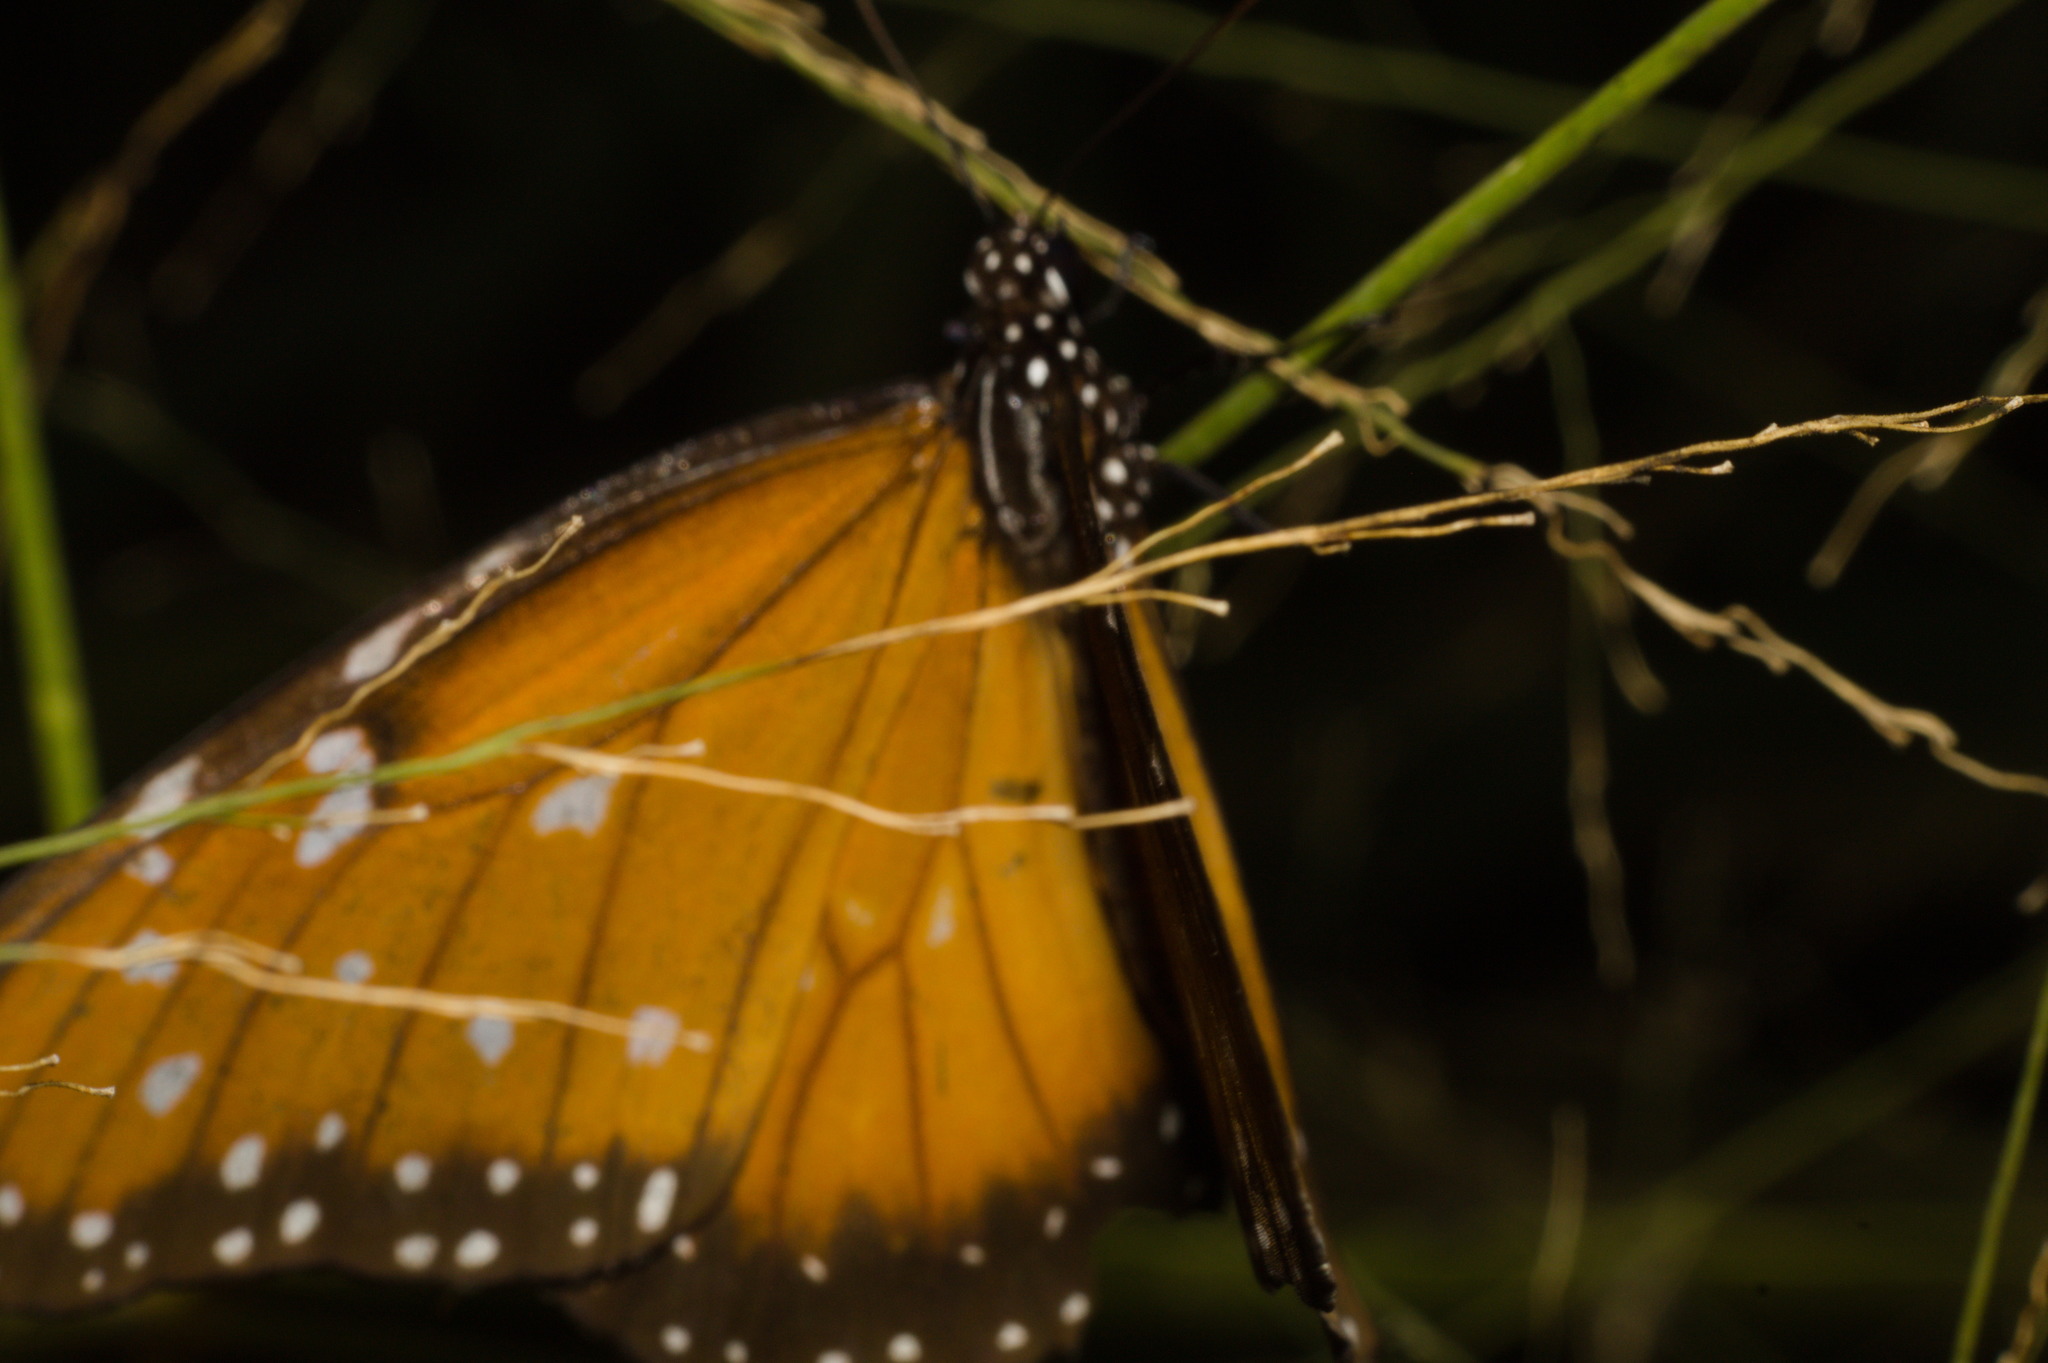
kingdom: Animalia
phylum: Arthropoda
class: Insecta
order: Lepidoptera
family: Nymphalidae
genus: Danaus
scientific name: Danaus eresimus
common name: Soldier
